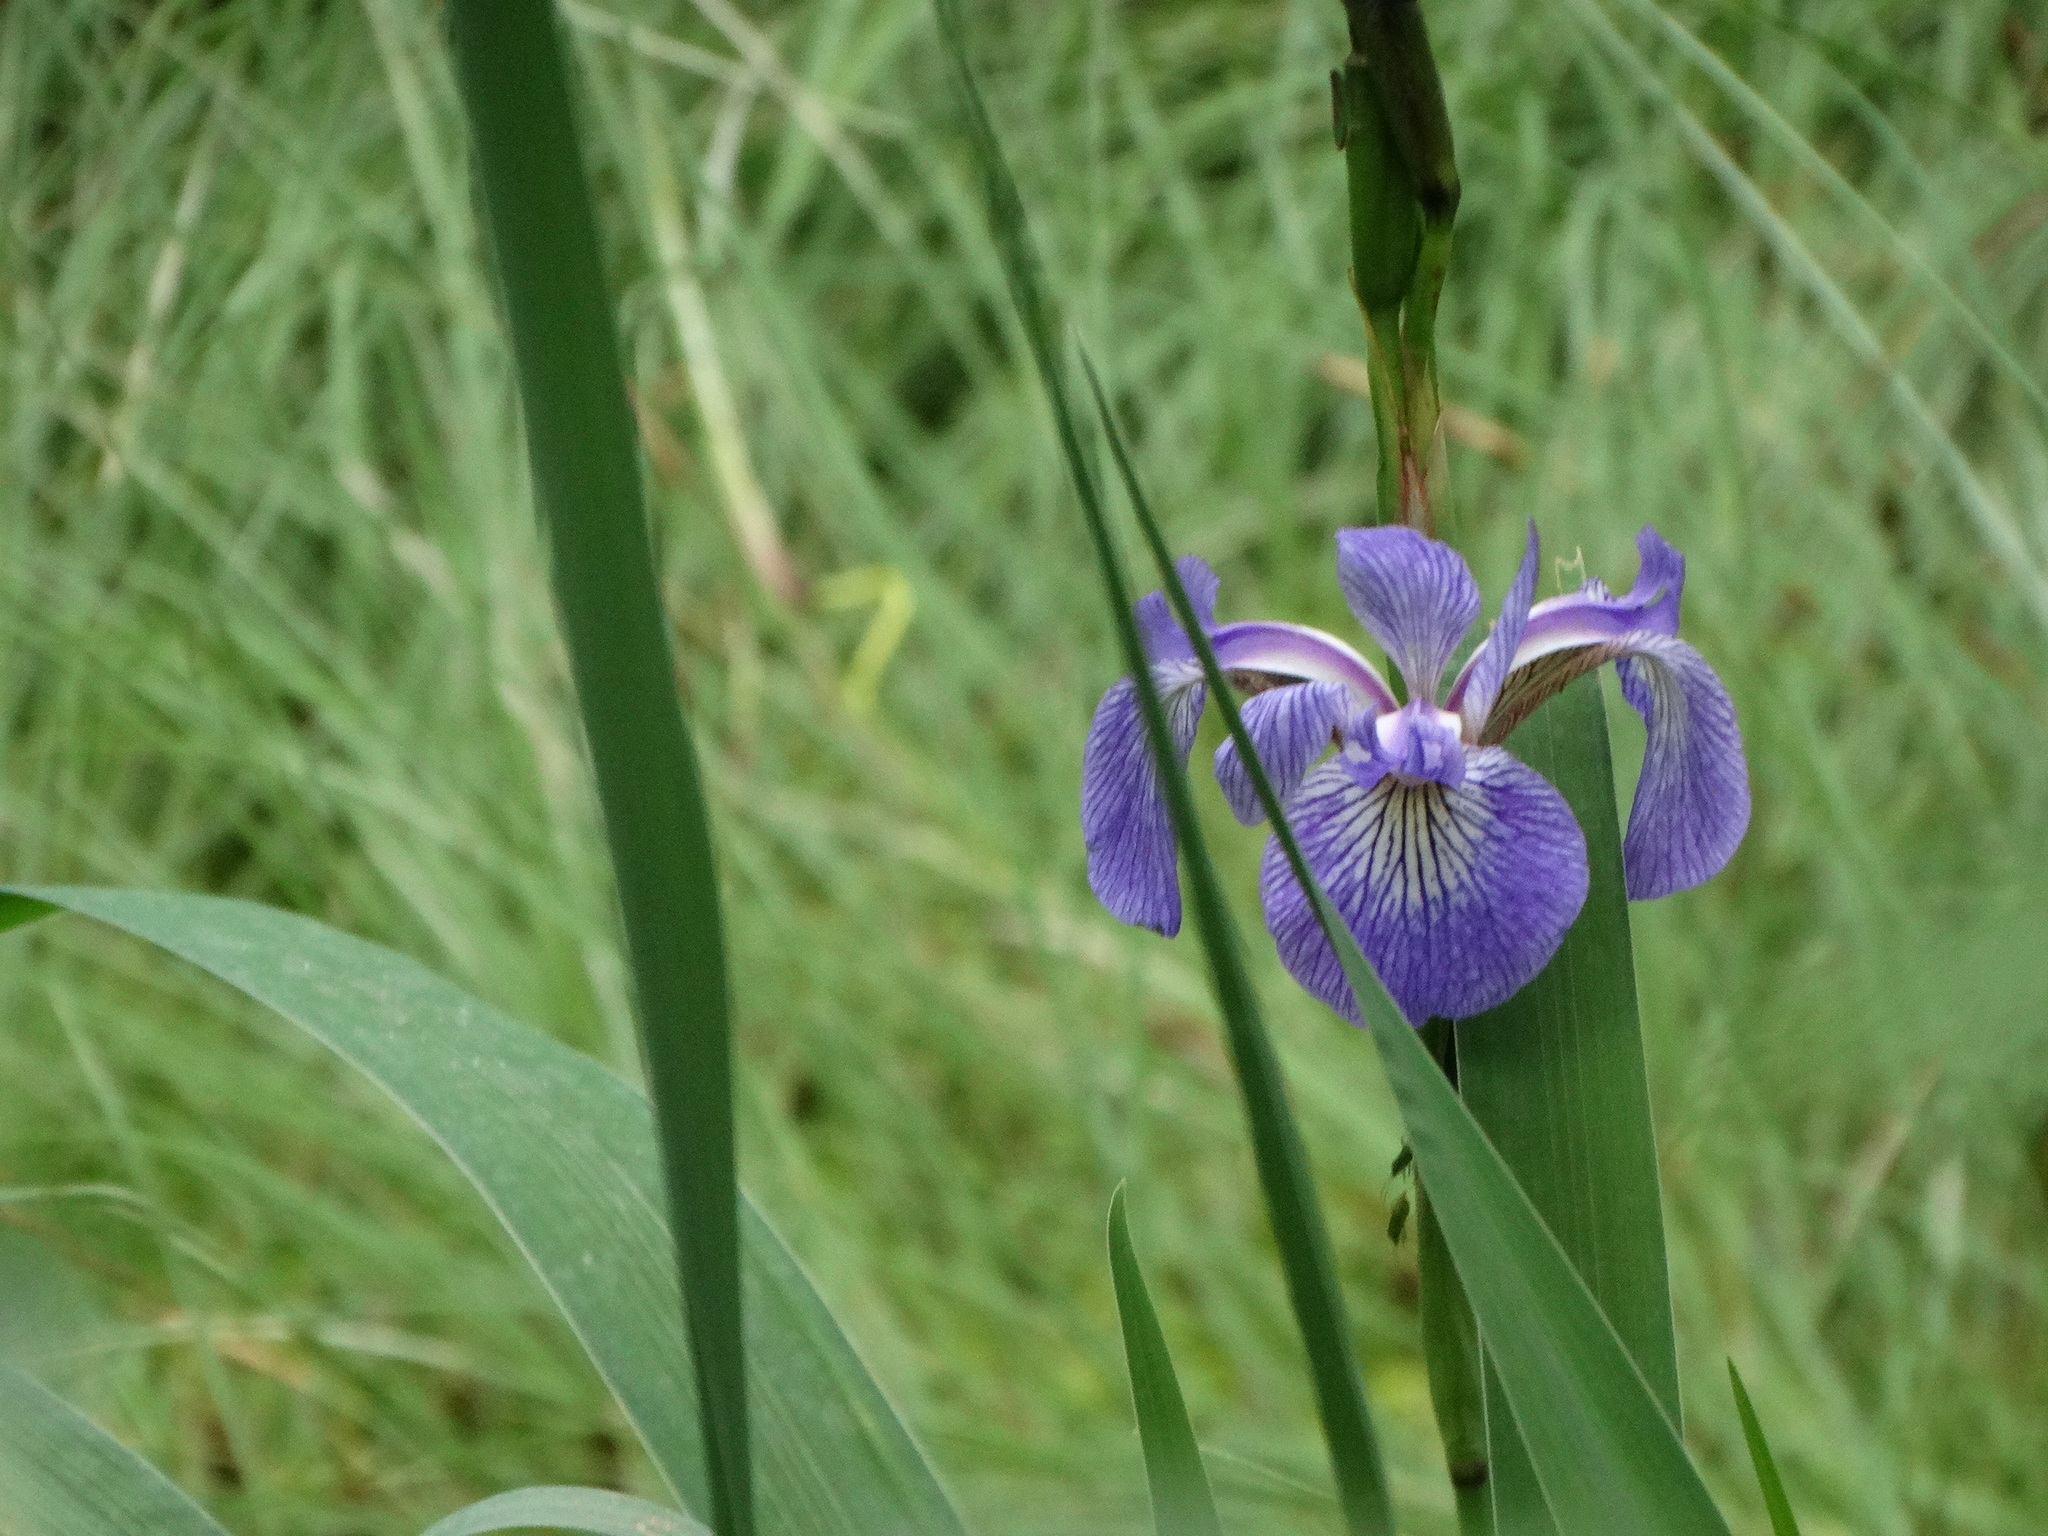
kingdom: Plantae
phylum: Tracheophyta
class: Liliopsida
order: Asparagales
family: Iridaceae
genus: Iris
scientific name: Iris versicolor
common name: Purple iris
